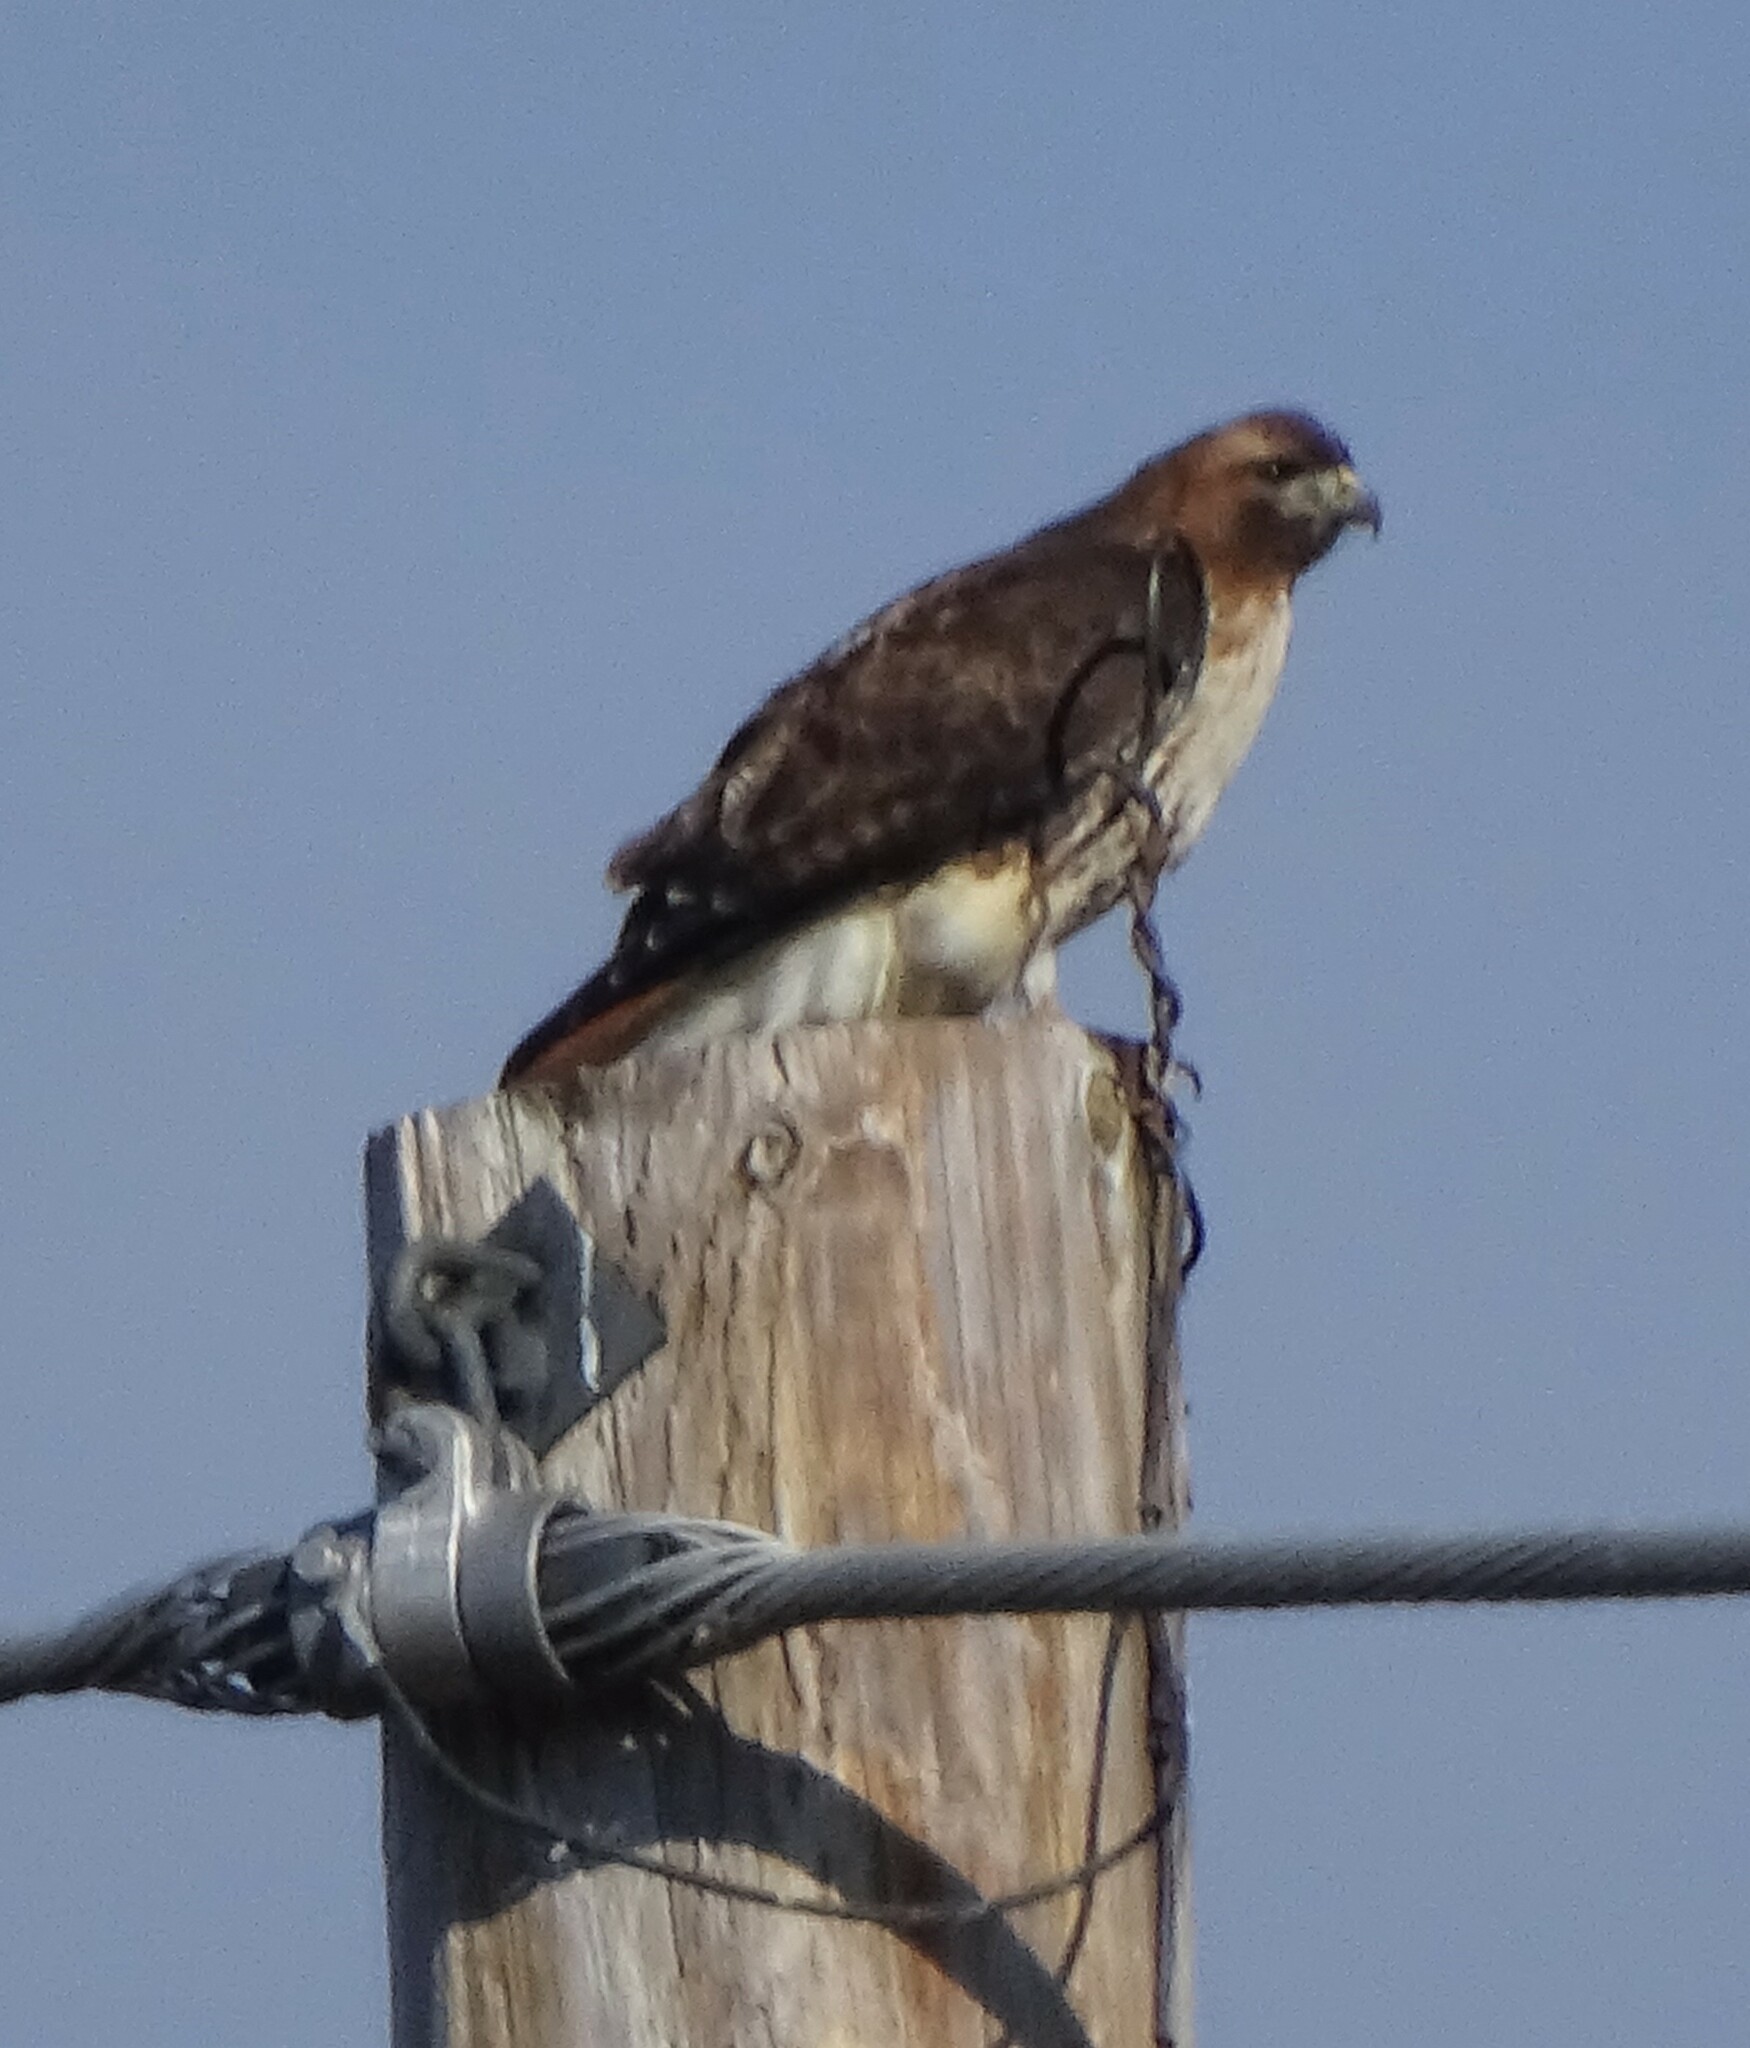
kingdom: Animalia
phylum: Chordata
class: Aves
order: Accipitriformes
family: Accipitridae
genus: Buteo
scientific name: Buteo jamaicensis
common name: Red-tailed hawk
